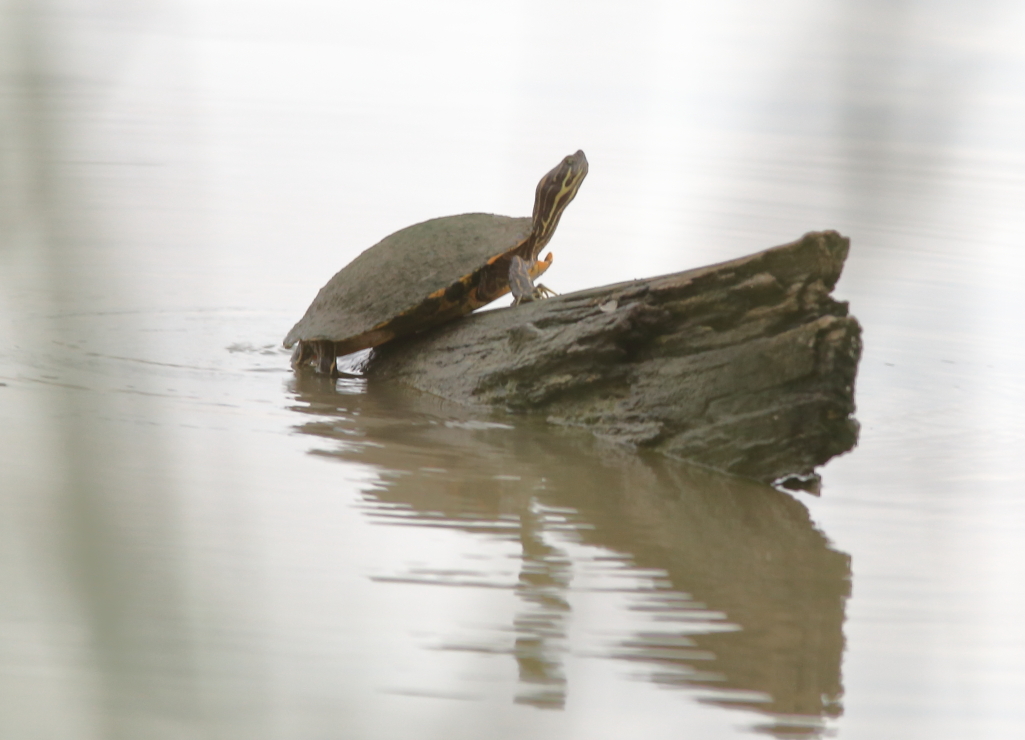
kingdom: Animalia
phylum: Chordata
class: Testudines
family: Emydidae
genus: Pseudemys
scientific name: Pseudemys concinna
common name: Eastern river cooter
